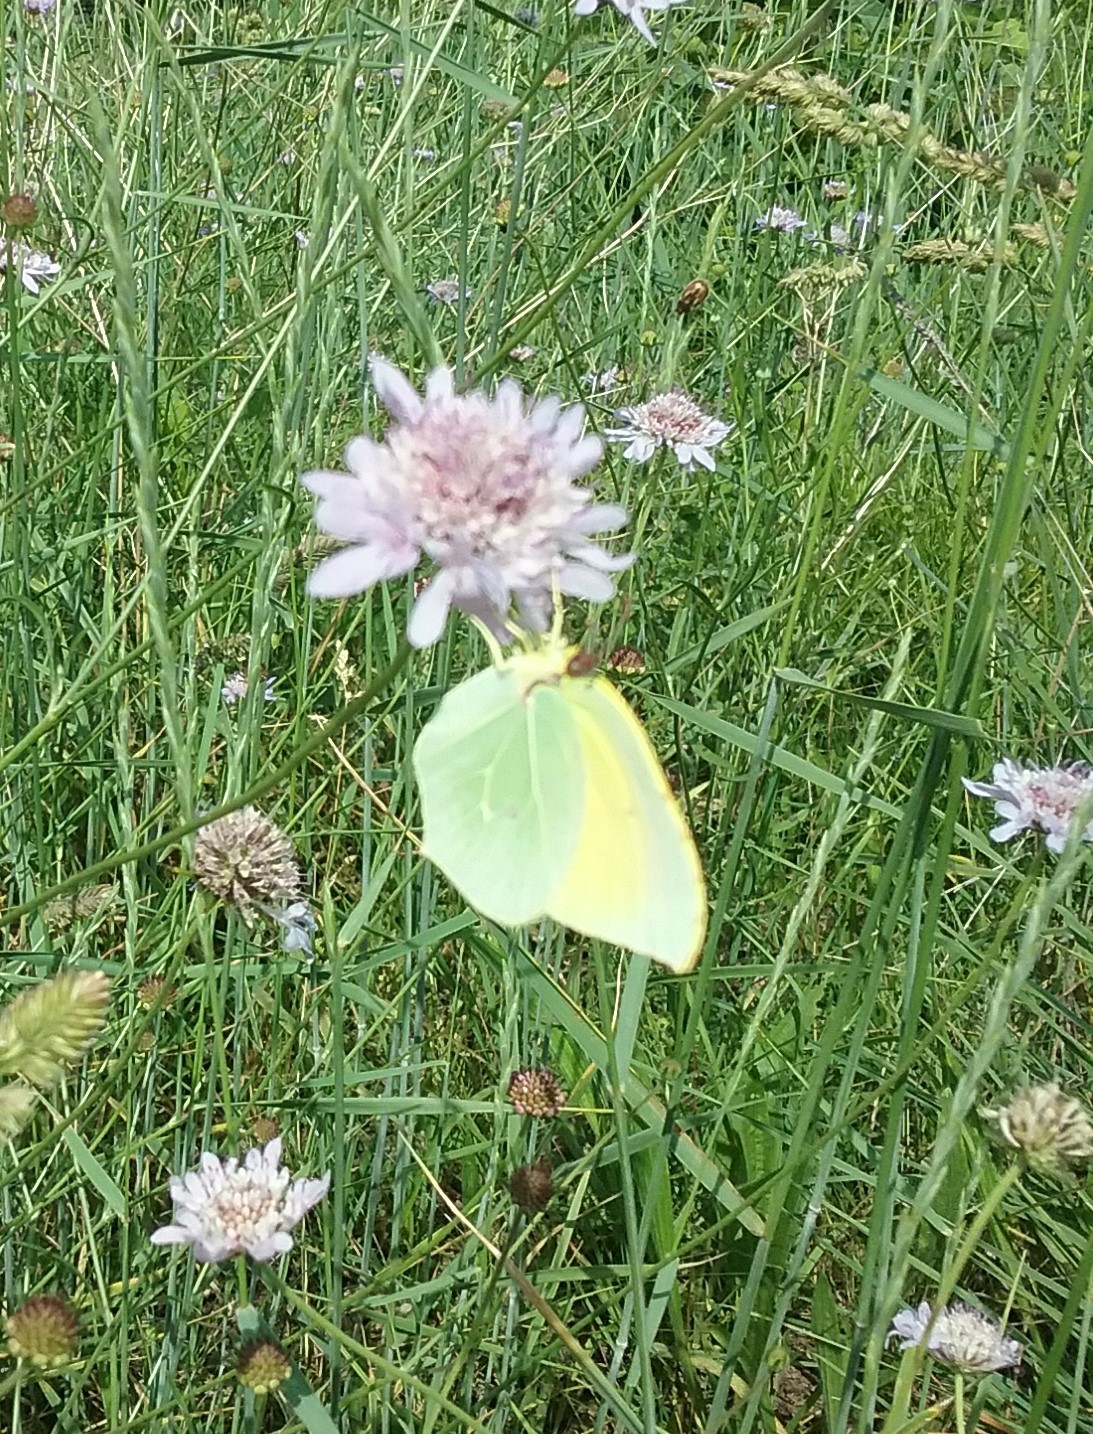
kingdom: Animalia
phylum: Arthropoda
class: Insecta
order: Lepidoptera
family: Pieridae
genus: Gonepteryx
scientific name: Gonepteryx cleopatra
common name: Cleopatra
